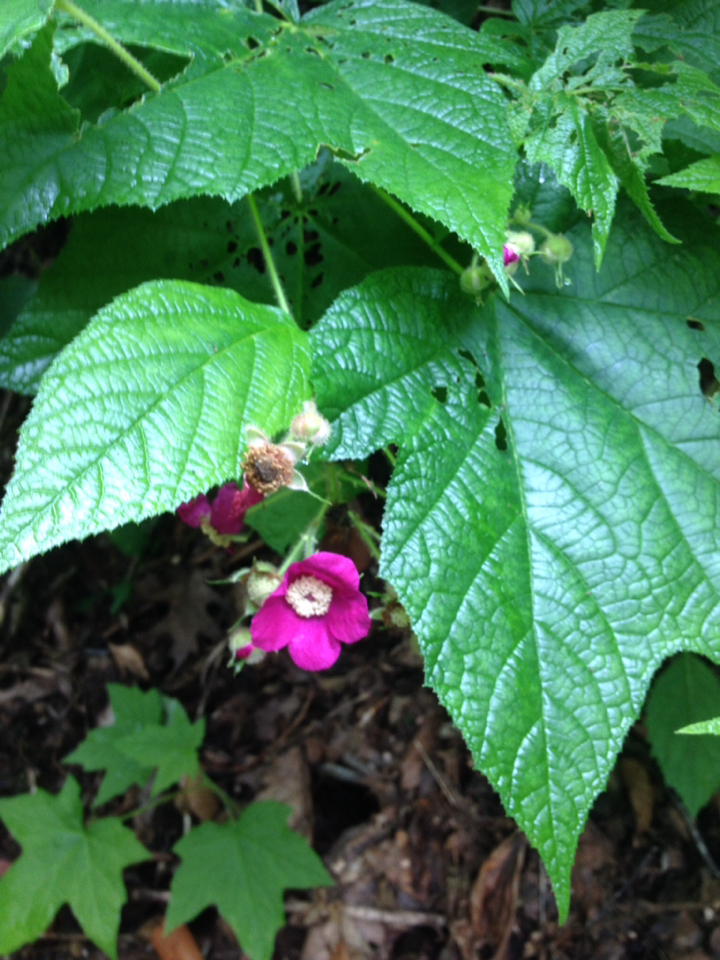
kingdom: Plantae
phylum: Tracheophyta
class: Magnoliopsida
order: Rosales
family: Rosaceae
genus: Rubus
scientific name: Rubus odoratus
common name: Purple-flowered raspberry
